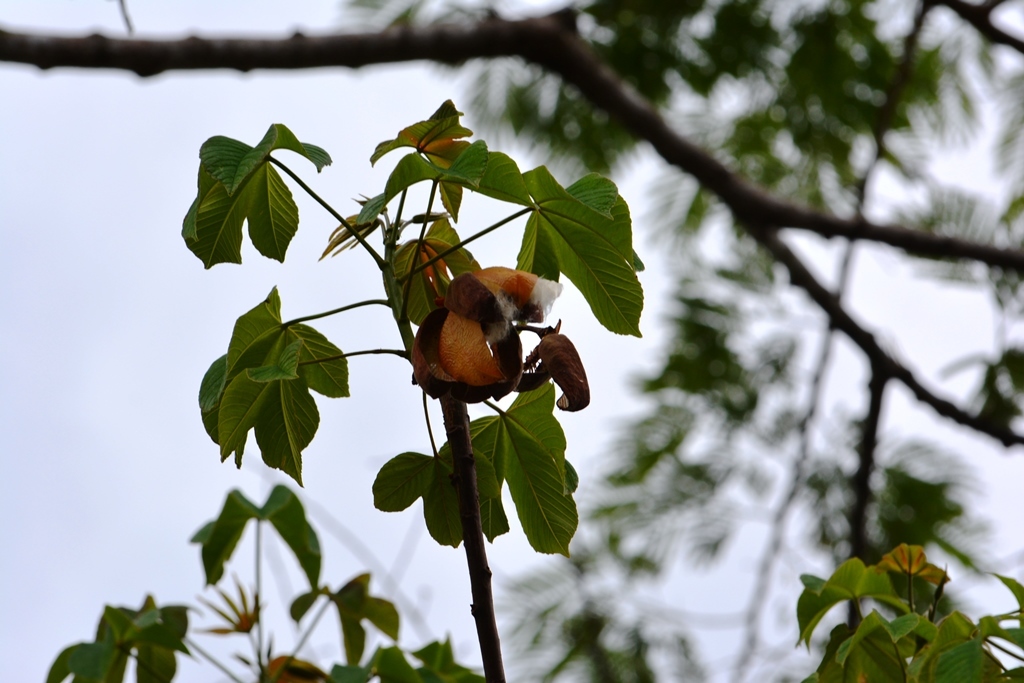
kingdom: Plantae
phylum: Tracheophyta
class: Magnoliopsida
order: Malvales
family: Cochlospermaceae
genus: Cochlospermum
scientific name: Cochlospermum vitifolium
